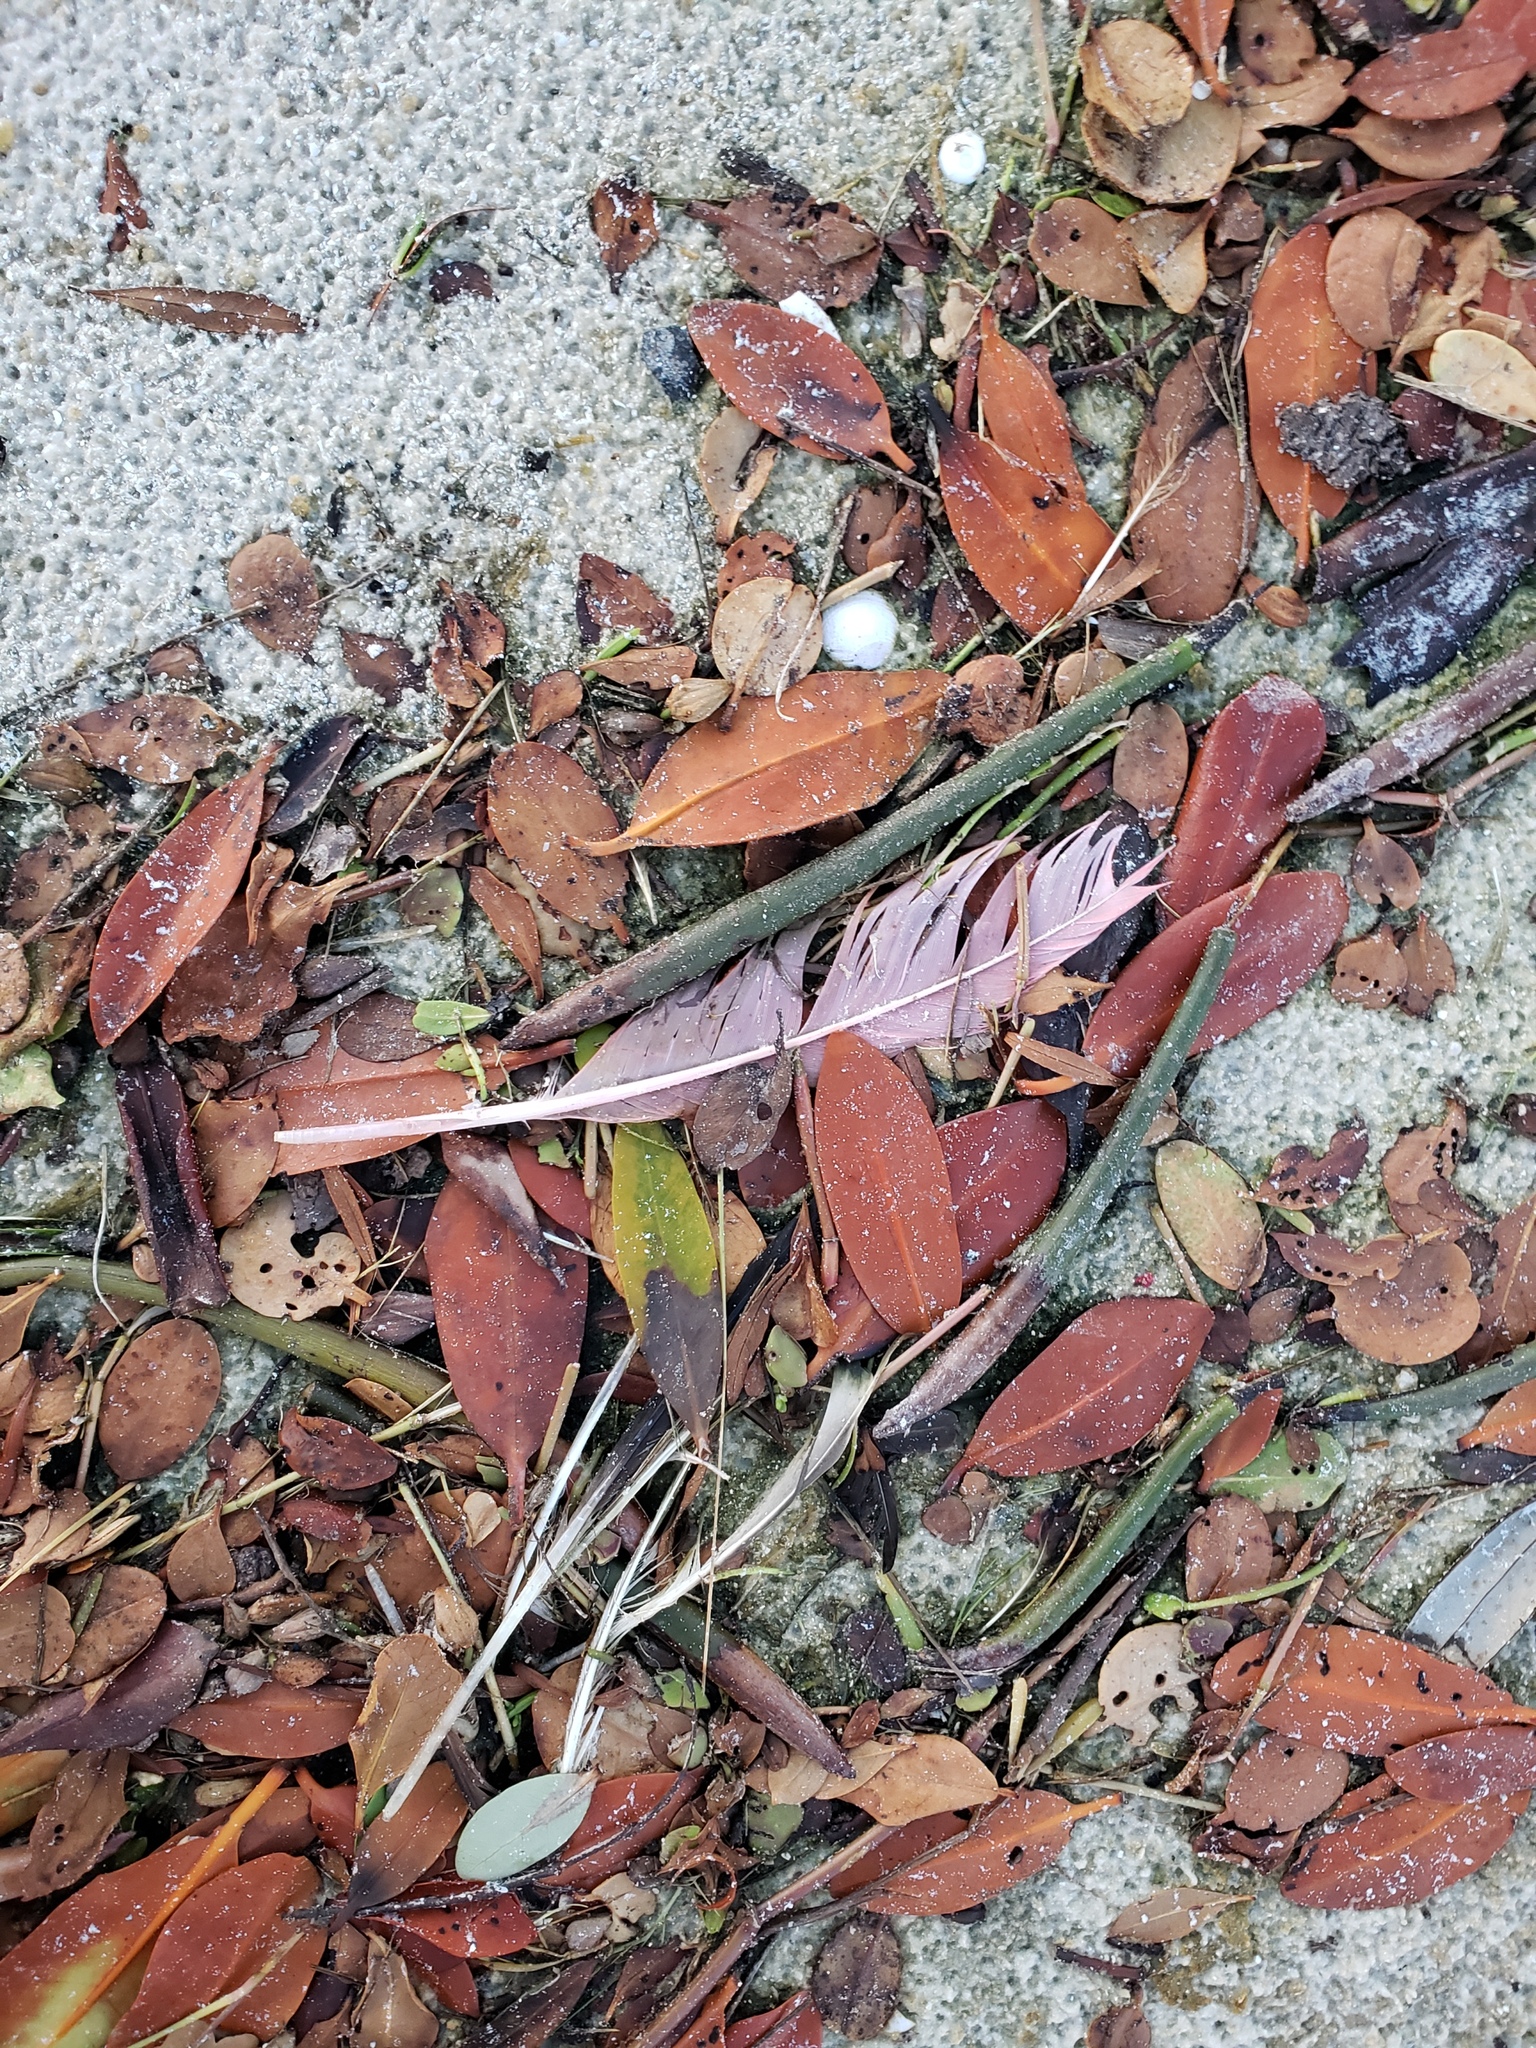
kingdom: Animalia
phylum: Chordata
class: Aves
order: Pelecaniformes
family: Threskiornithidae
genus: Platalea
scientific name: Platalea ajaja
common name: Roseate spoonbill
